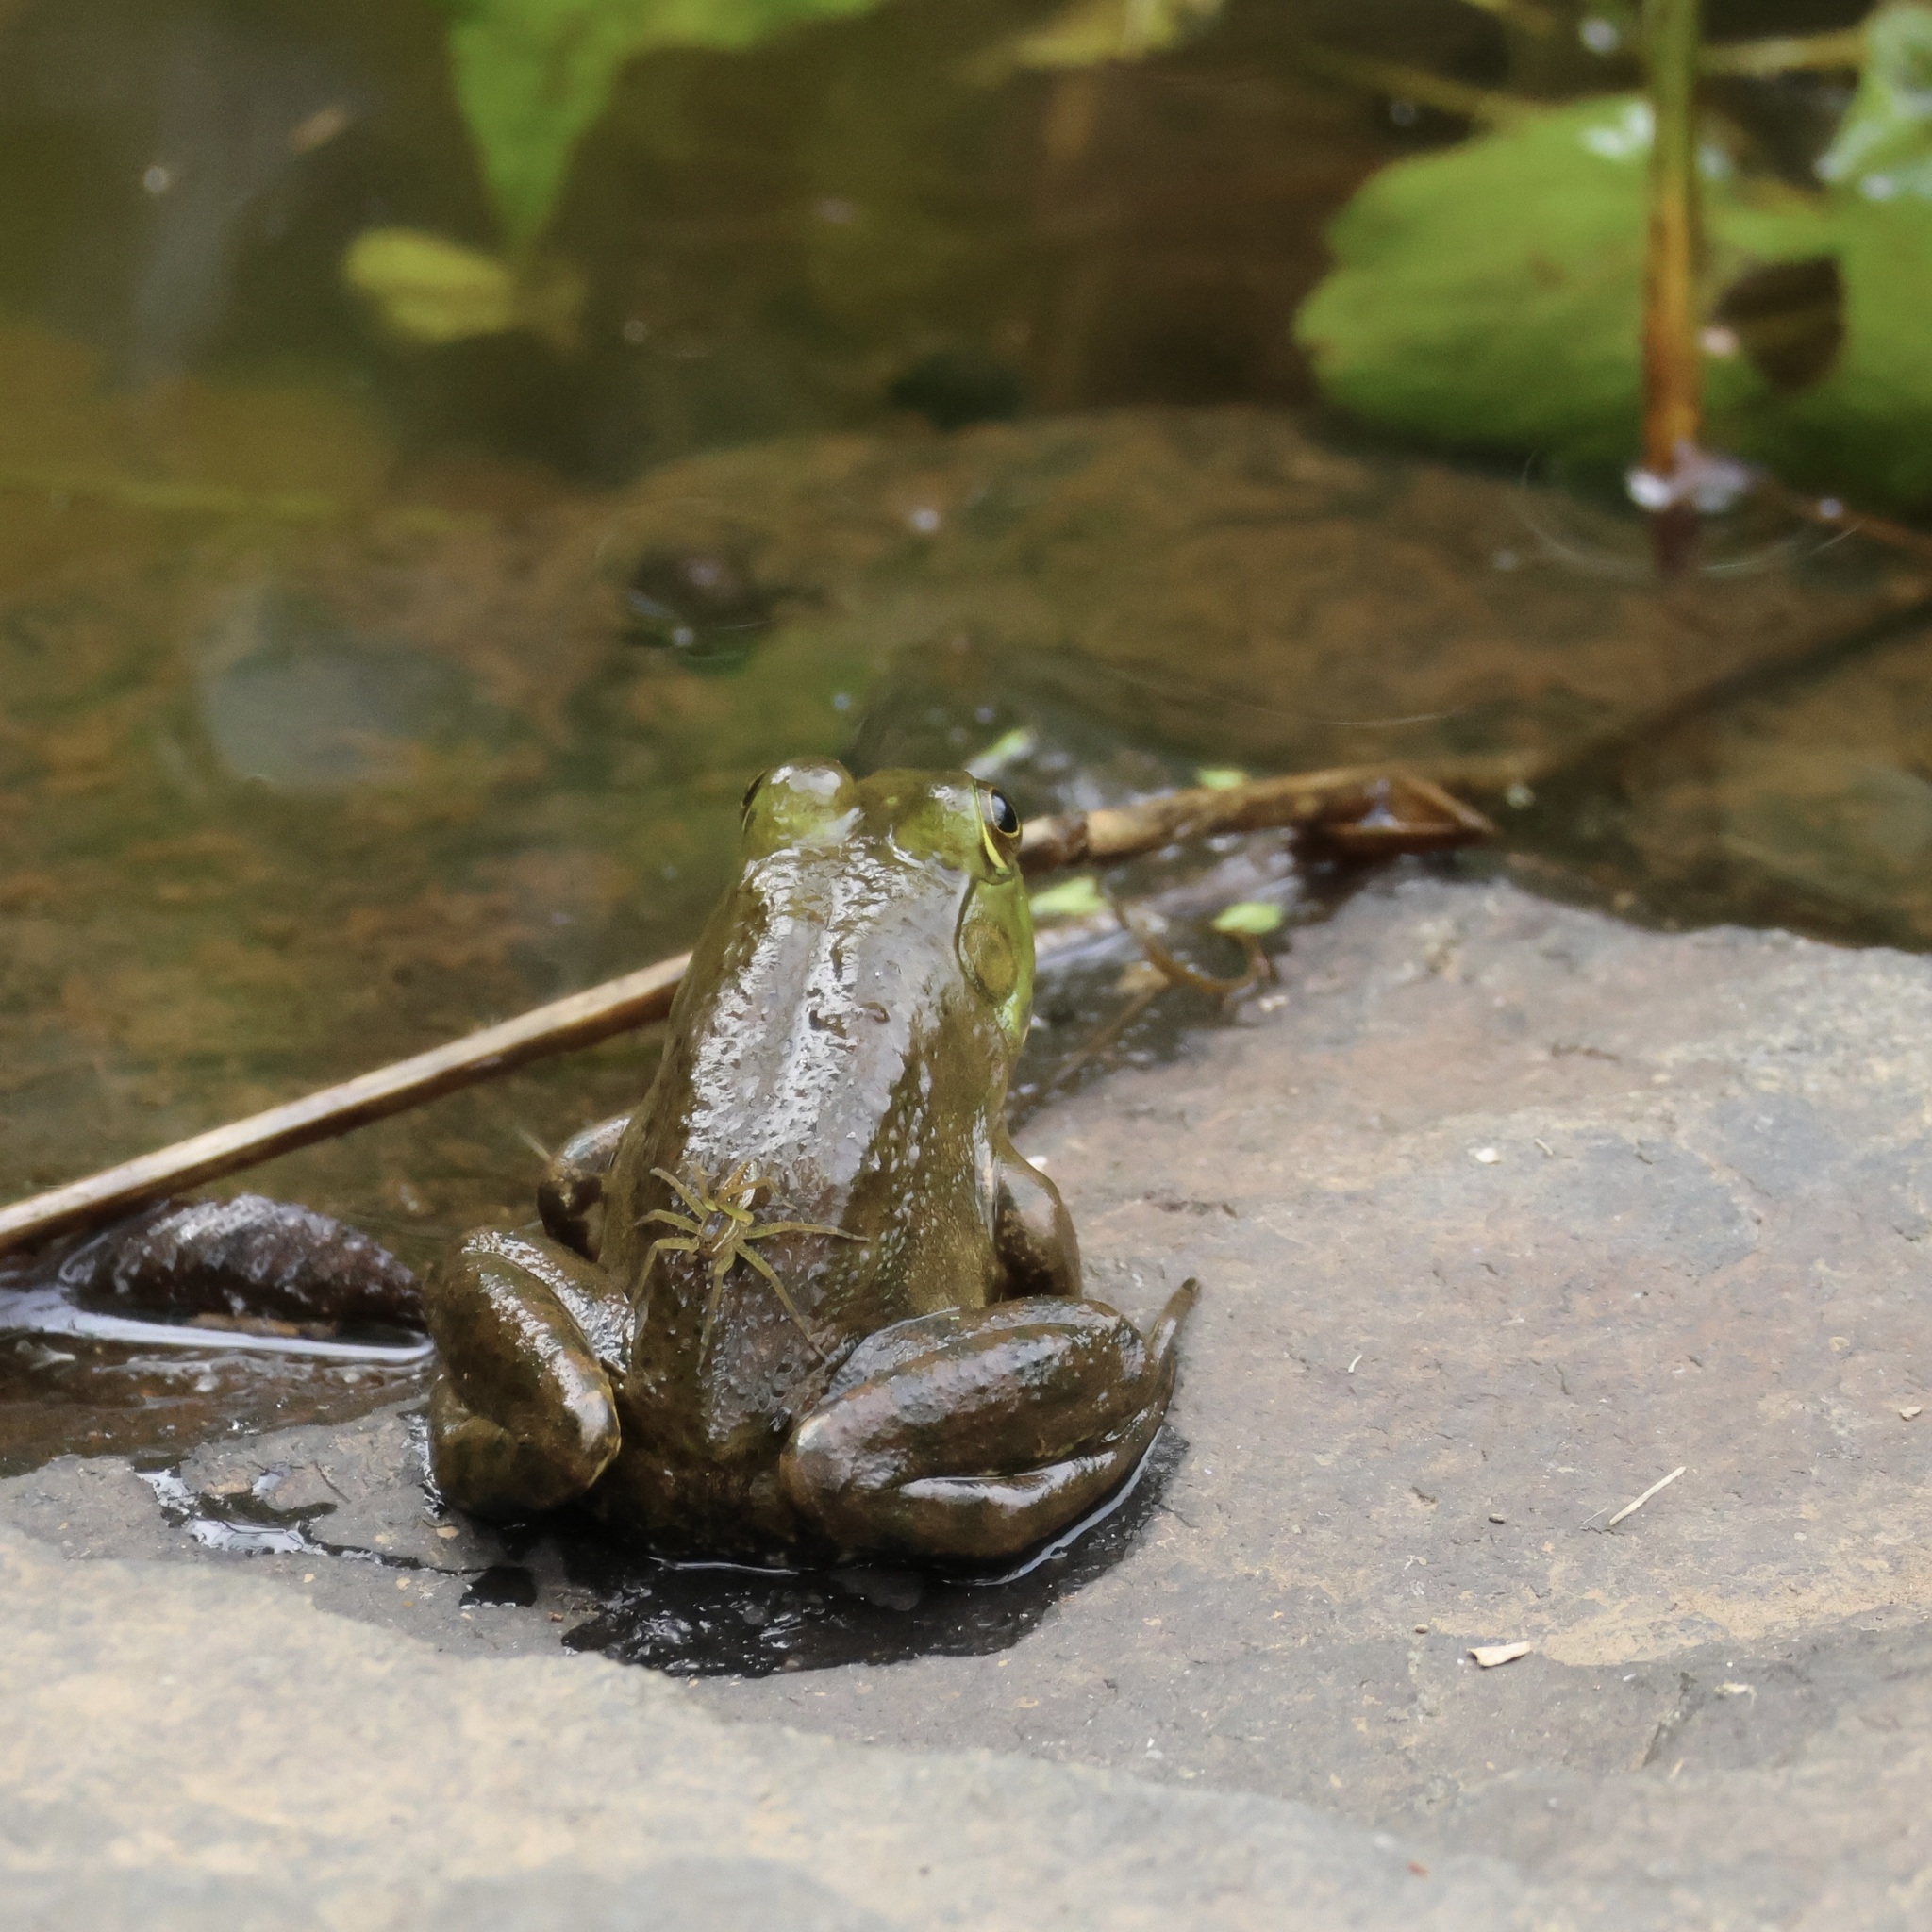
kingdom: Animalia
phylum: Chordata
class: Amphibia
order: Anura
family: Ranidae
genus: Lithobates
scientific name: Lithobates catesbeianus
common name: American bullfrog
